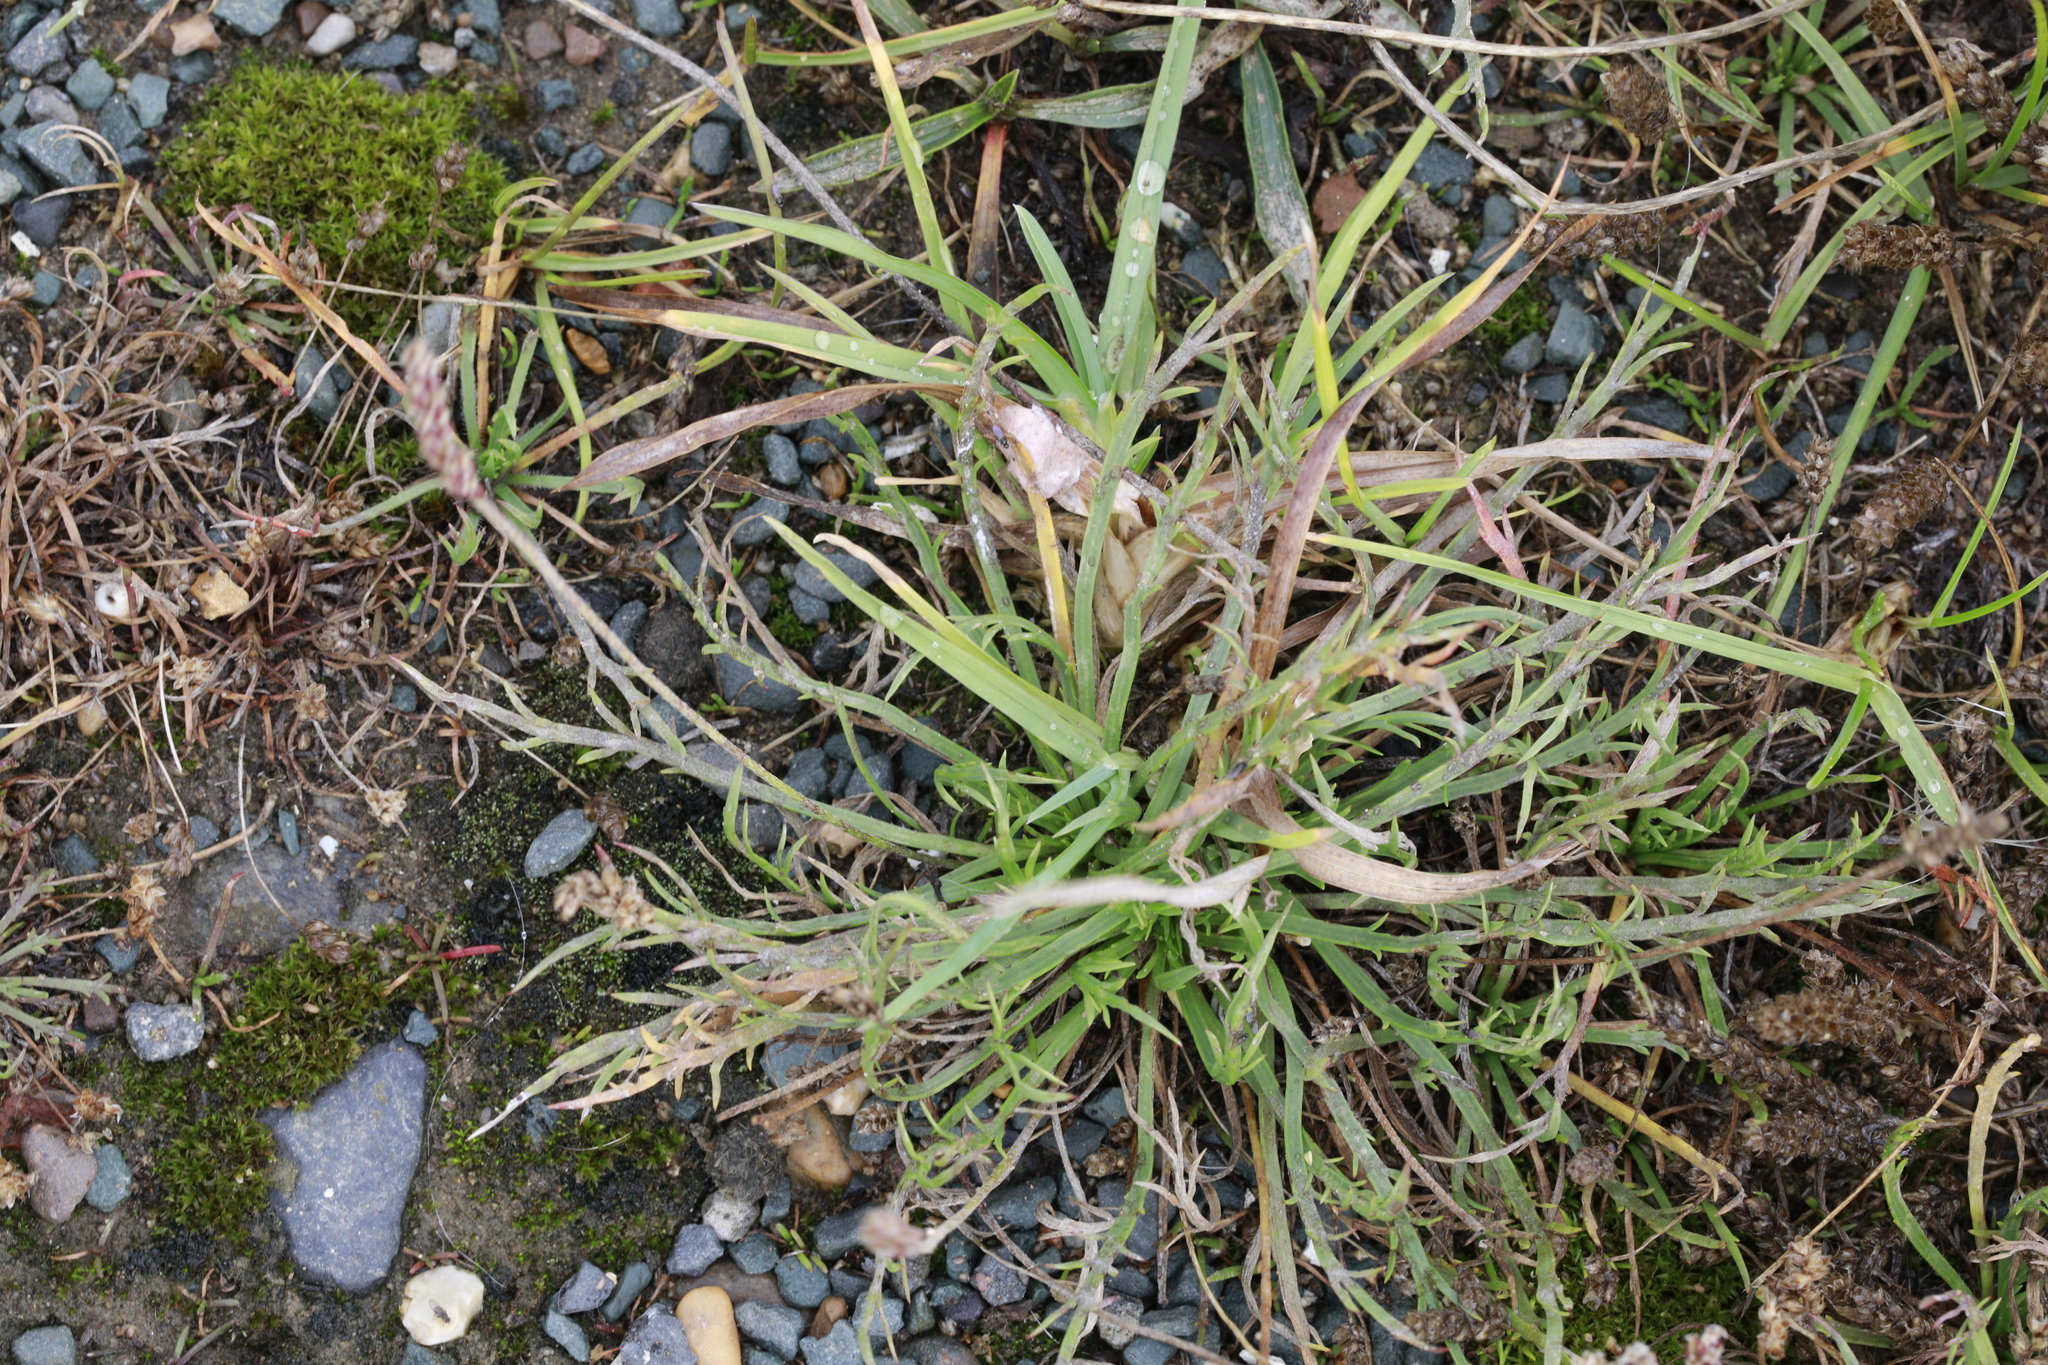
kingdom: Plantae
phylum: Tracheophyta
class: Magnoliopsida
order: Lamiales
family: Plantaginaceae
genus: Plantago
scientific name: Plantago coronopus
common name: Buck's-horn plantain
